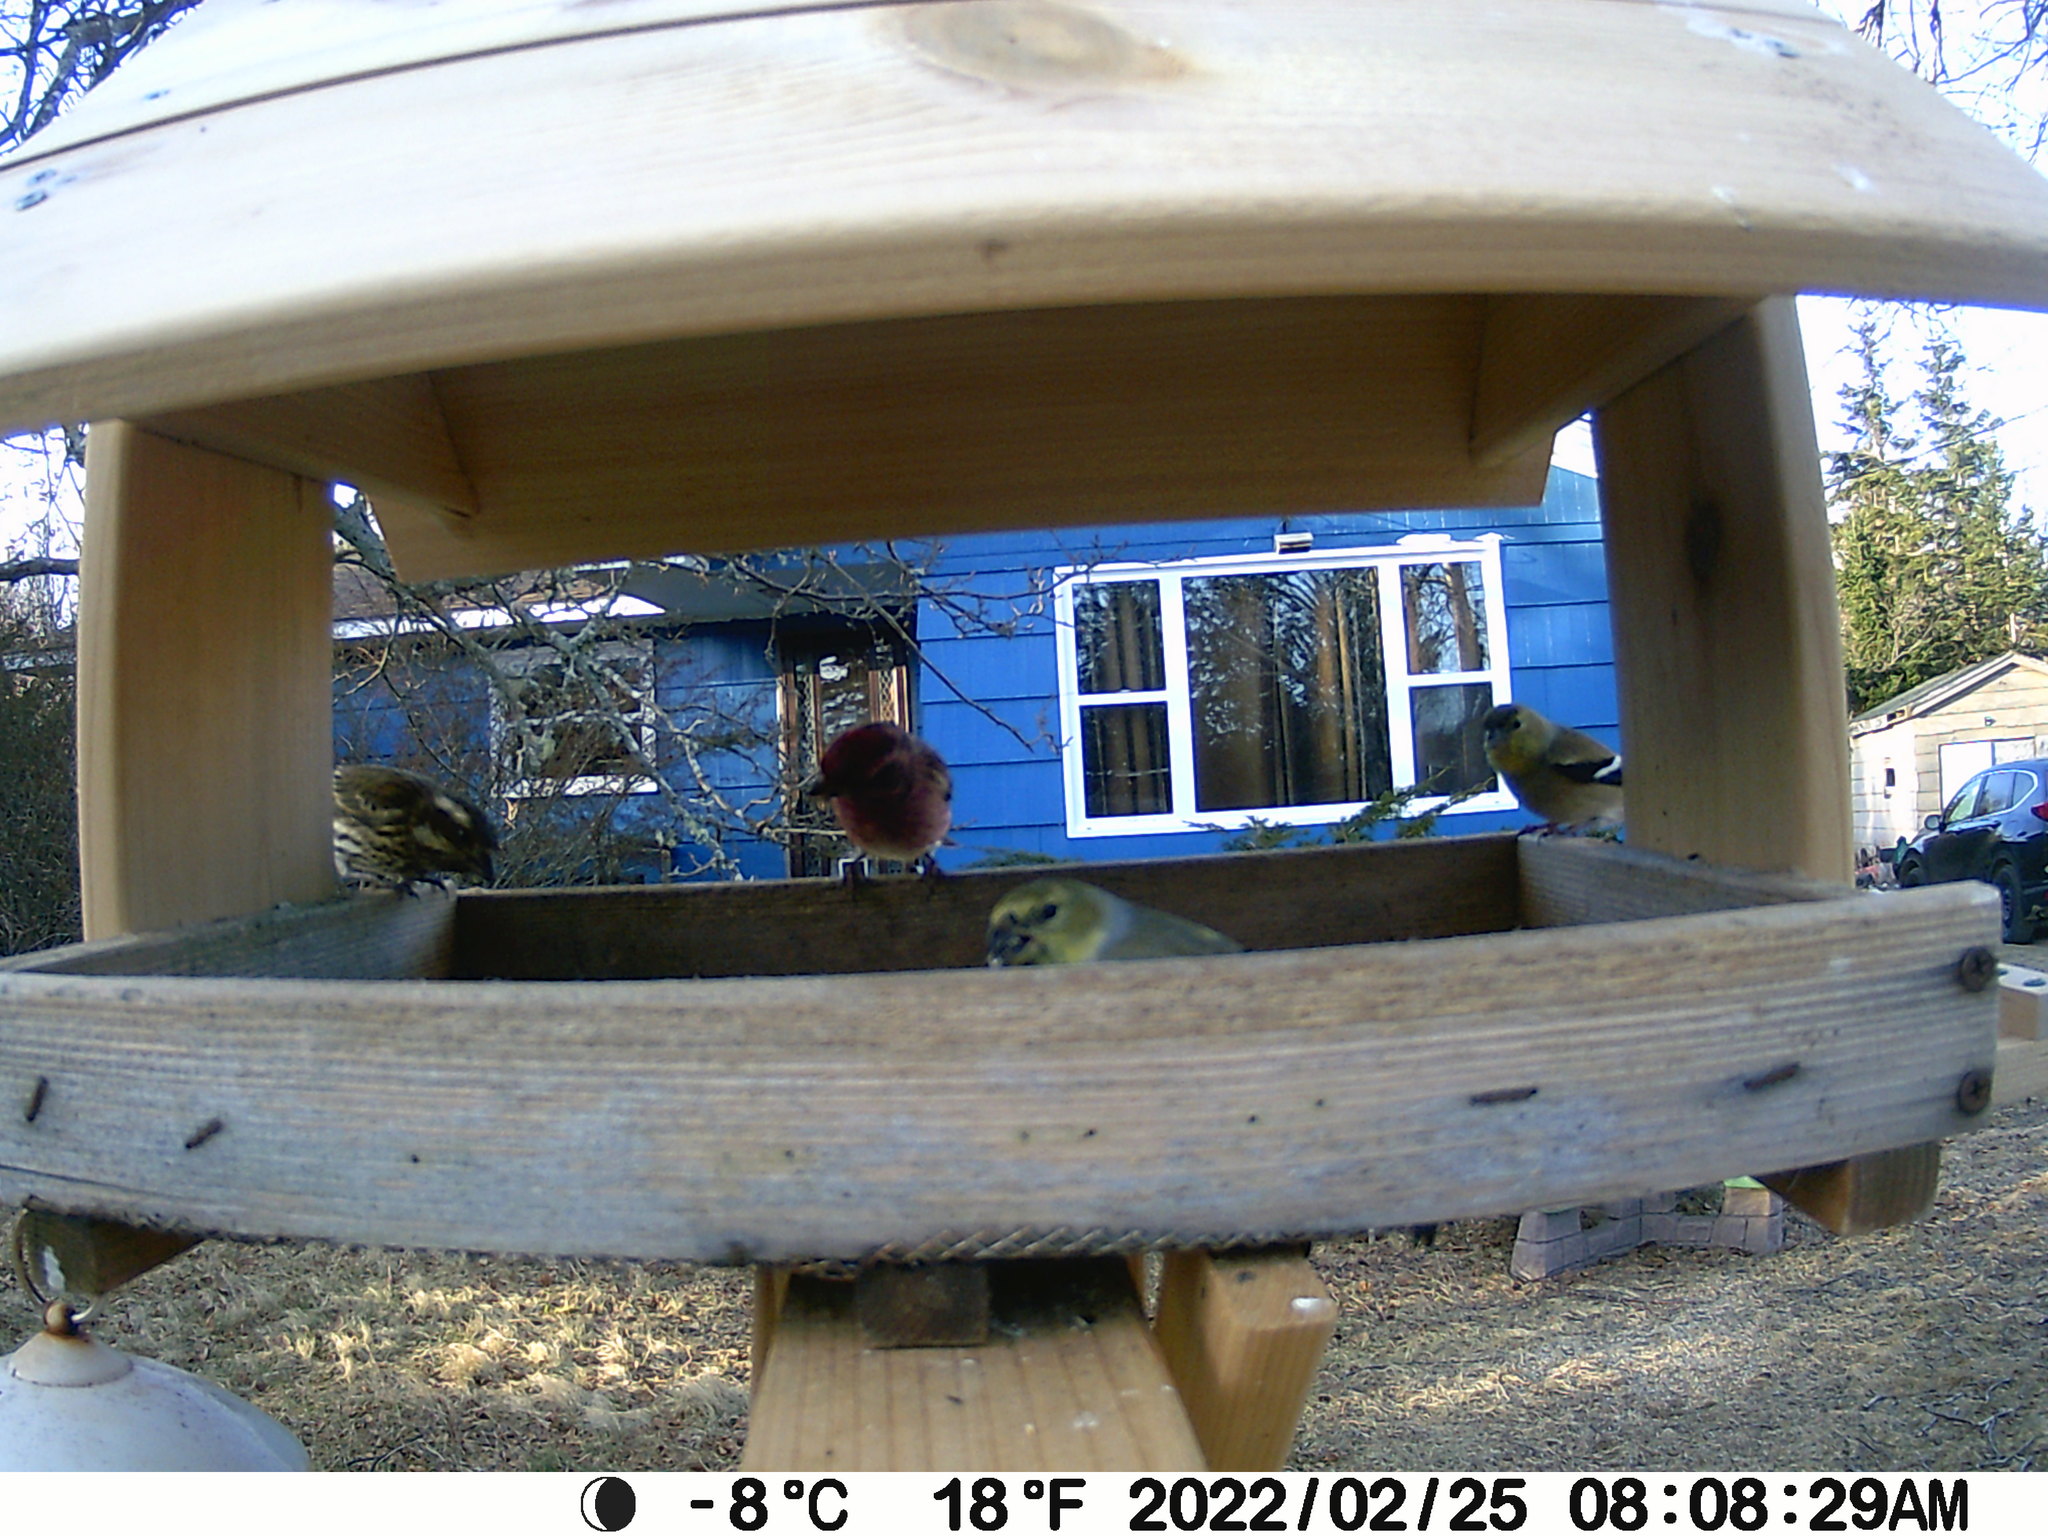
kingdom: Animalia
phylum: Chordata
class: Aves
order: Passeriformes
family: Fringillidae
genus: Haemorhous
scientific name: Haemorhous purpureus
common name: Purple finch
